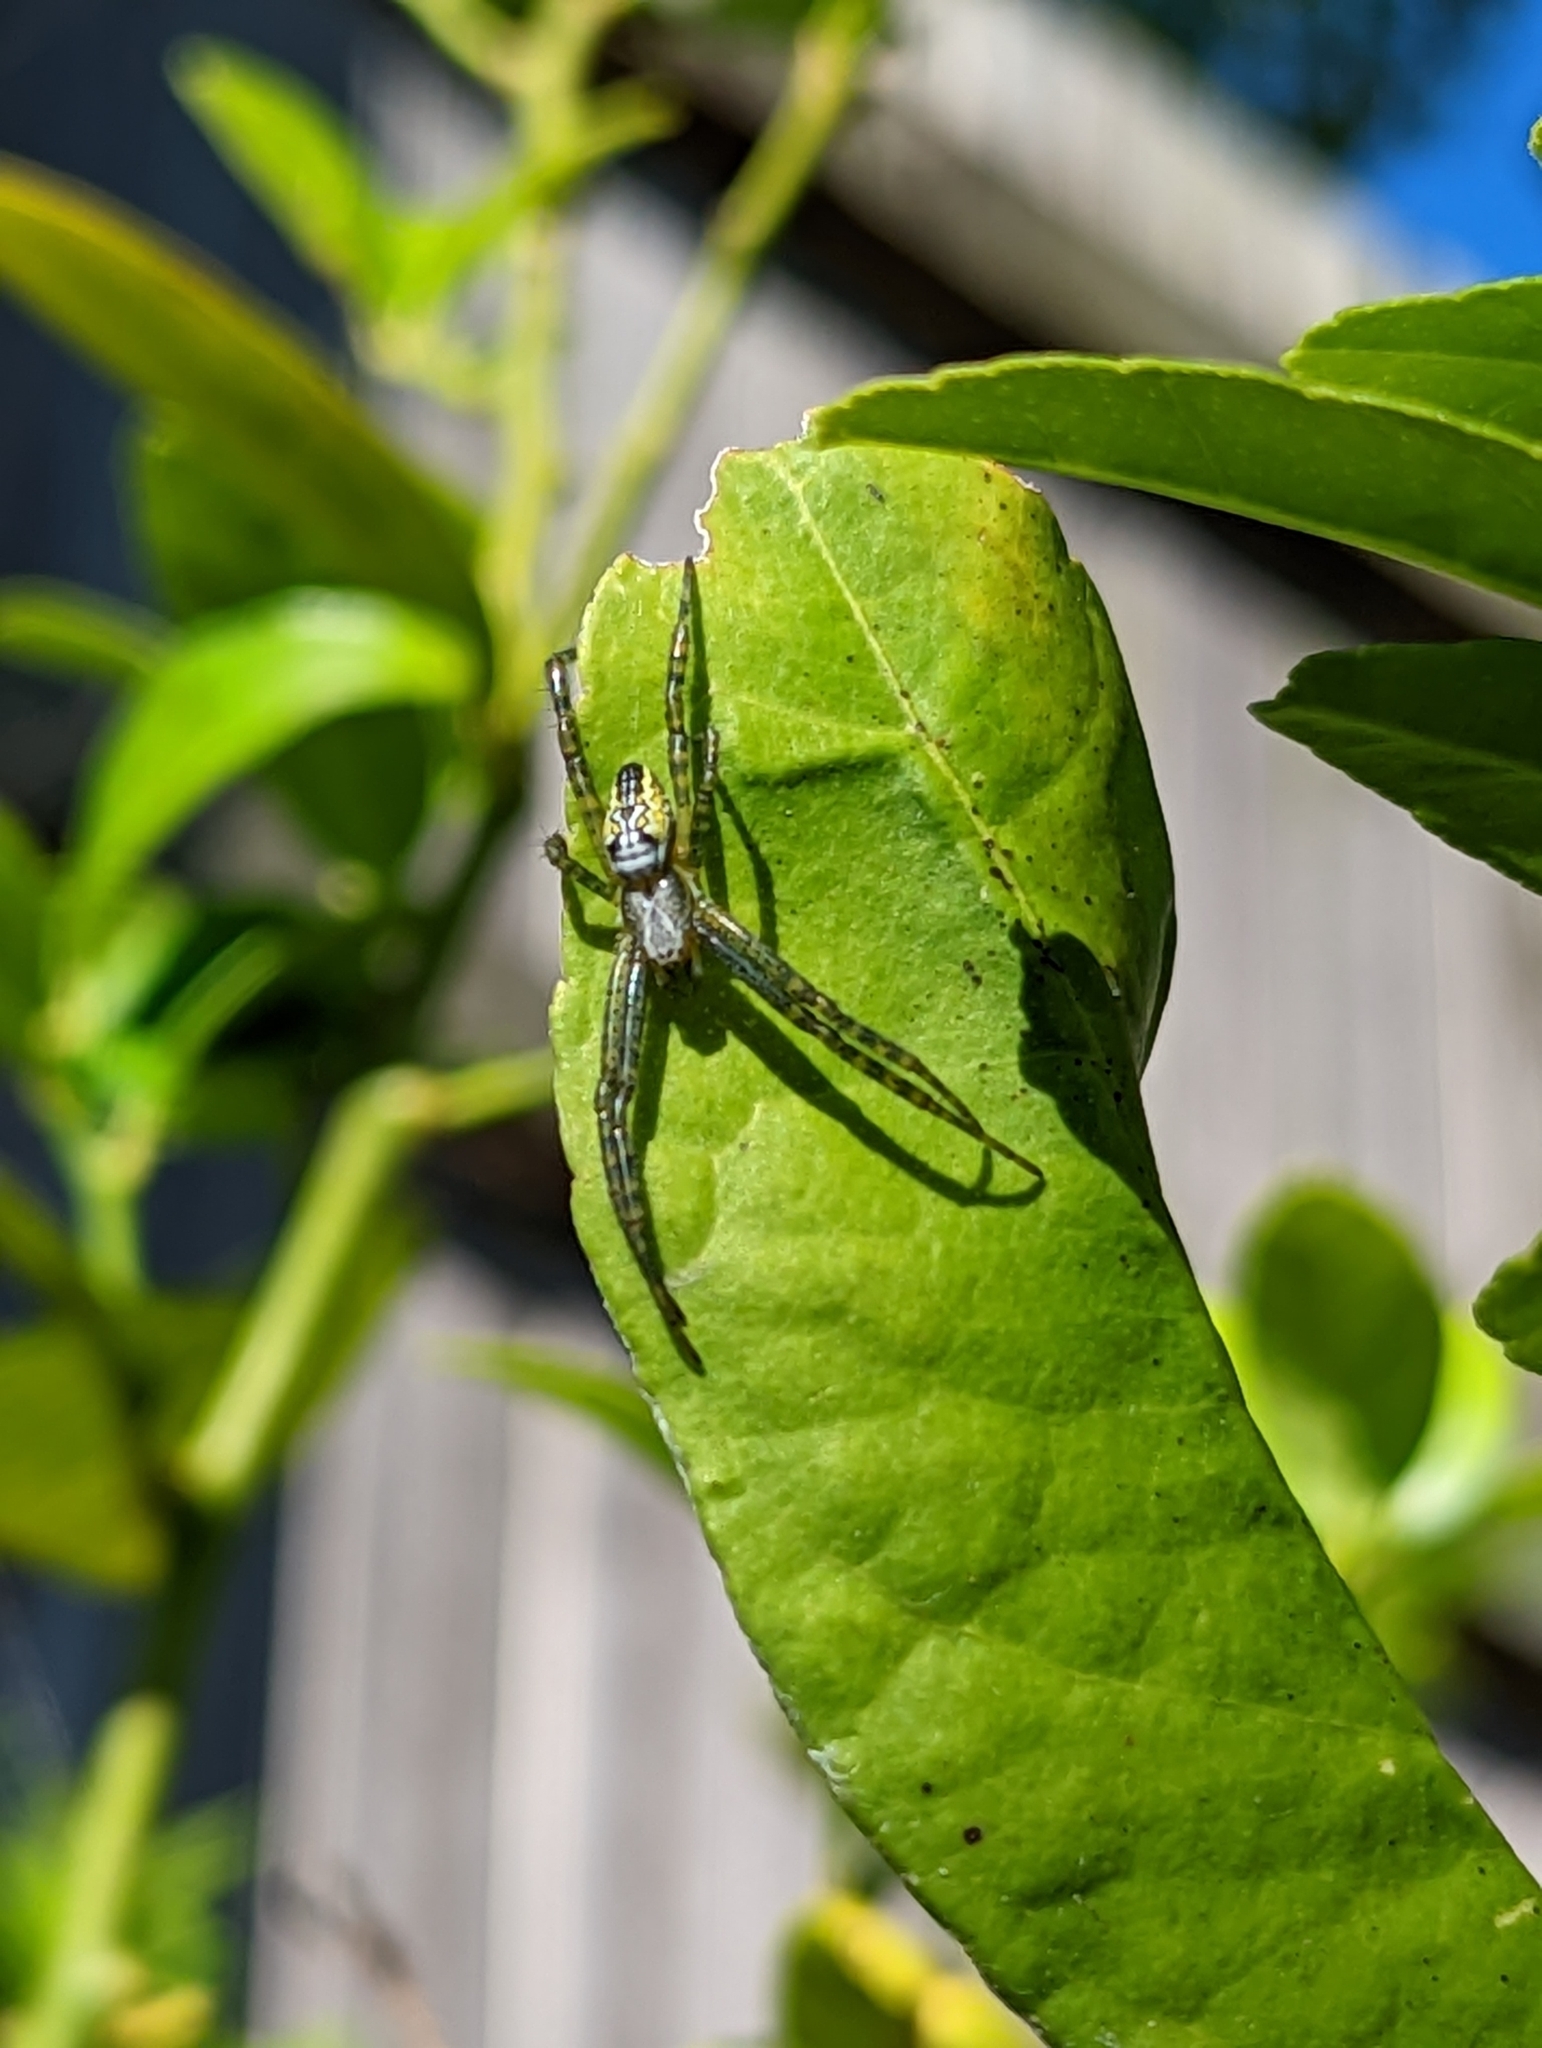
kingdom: Chromista
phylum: Ochrophyta
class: Dictyochophyceae
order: Pedinellales
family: Cyrtophoraceae
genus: Cyrtophora
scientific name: Cyrtophora moluccensis
